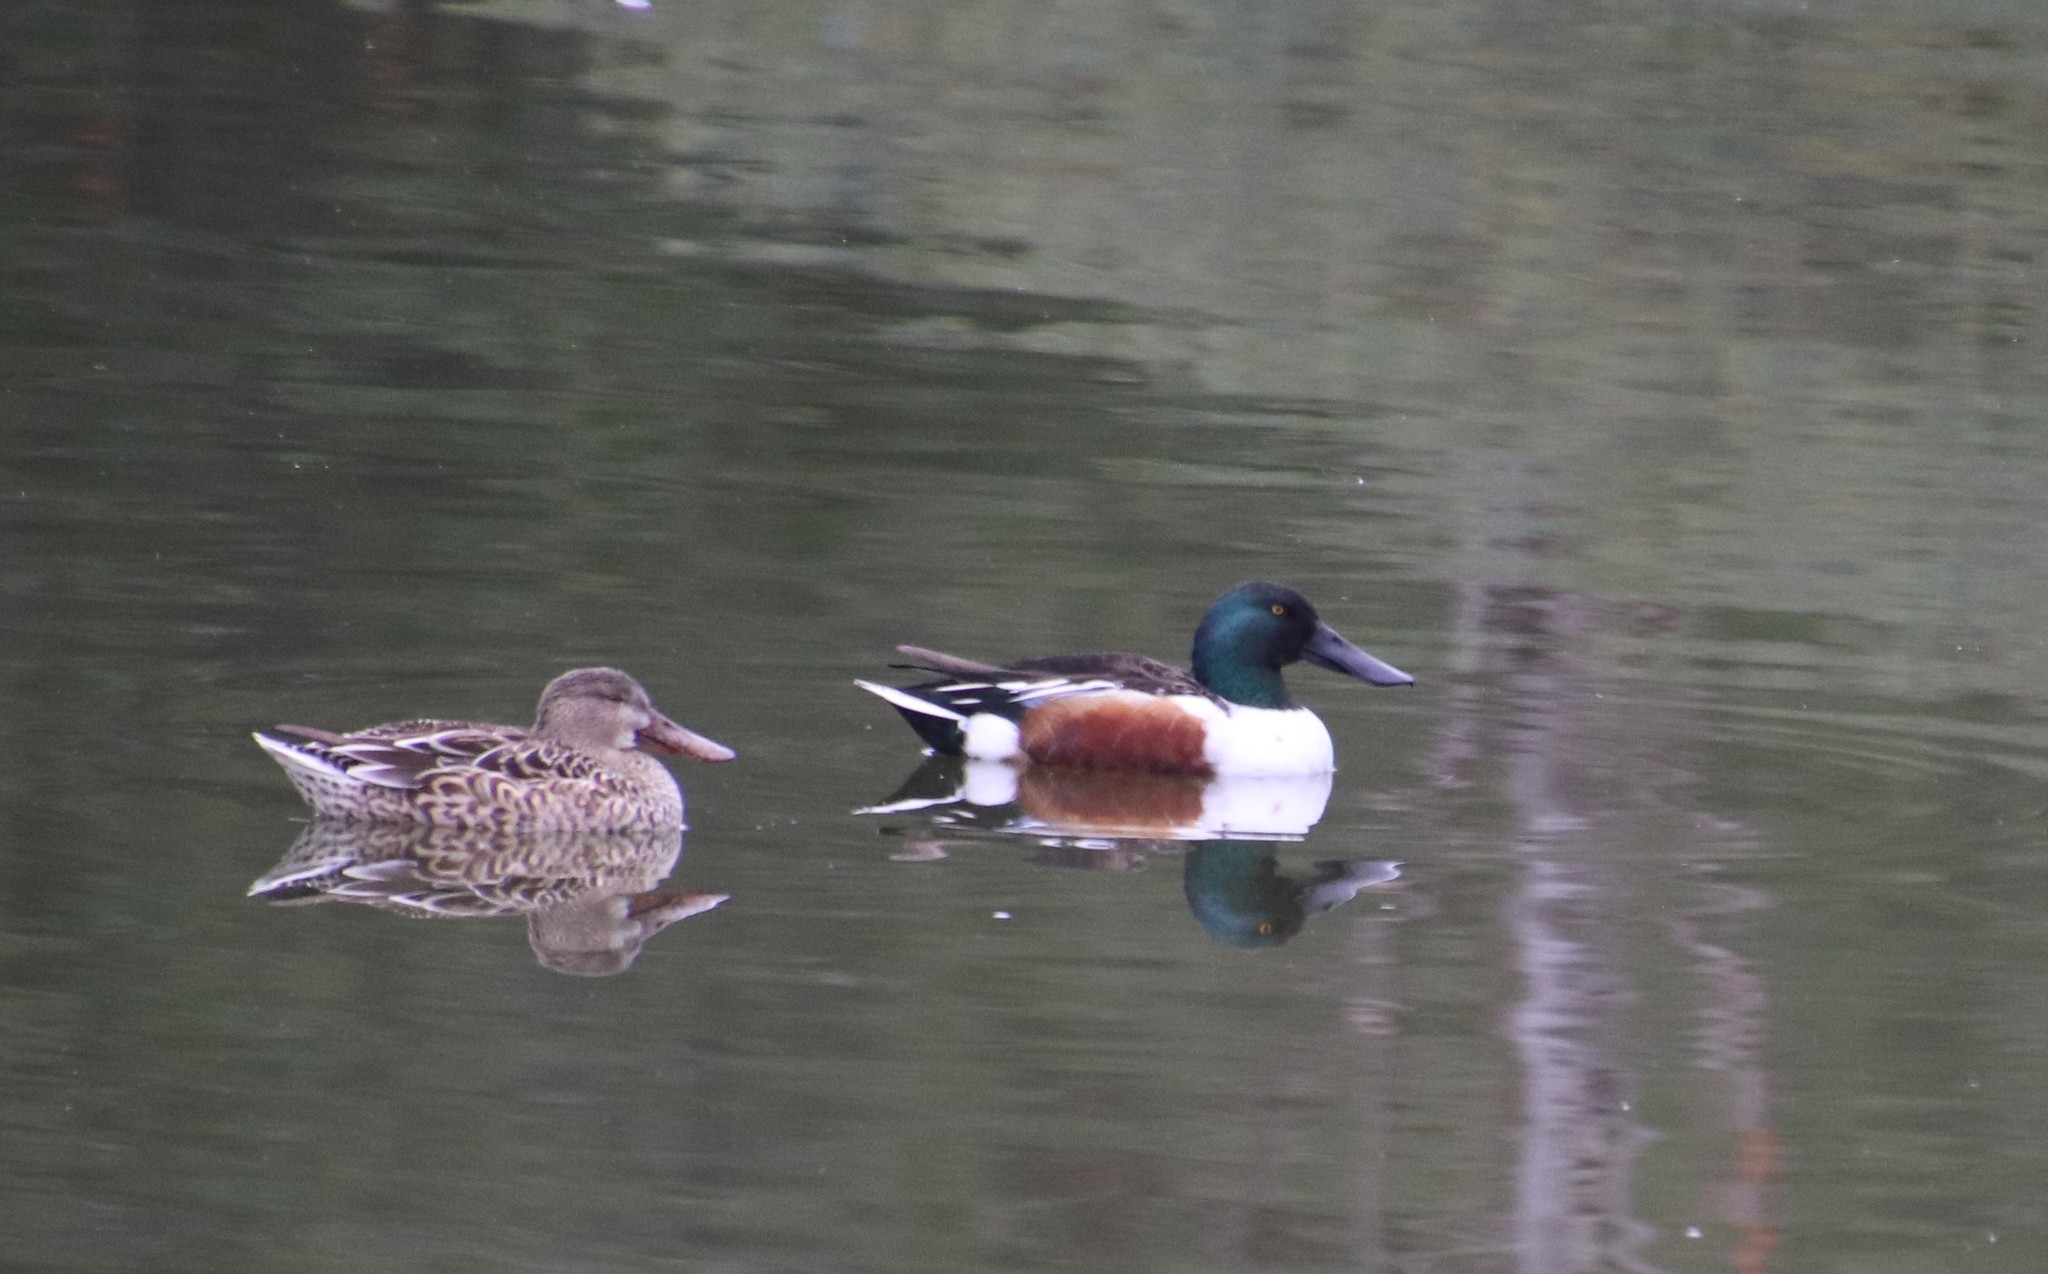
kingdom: Animalia
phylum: Chordata
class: Aves
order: Anseriformes
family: Anatidae
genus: Spatula
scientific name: Spatula clypeata
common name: Northern shoveler
